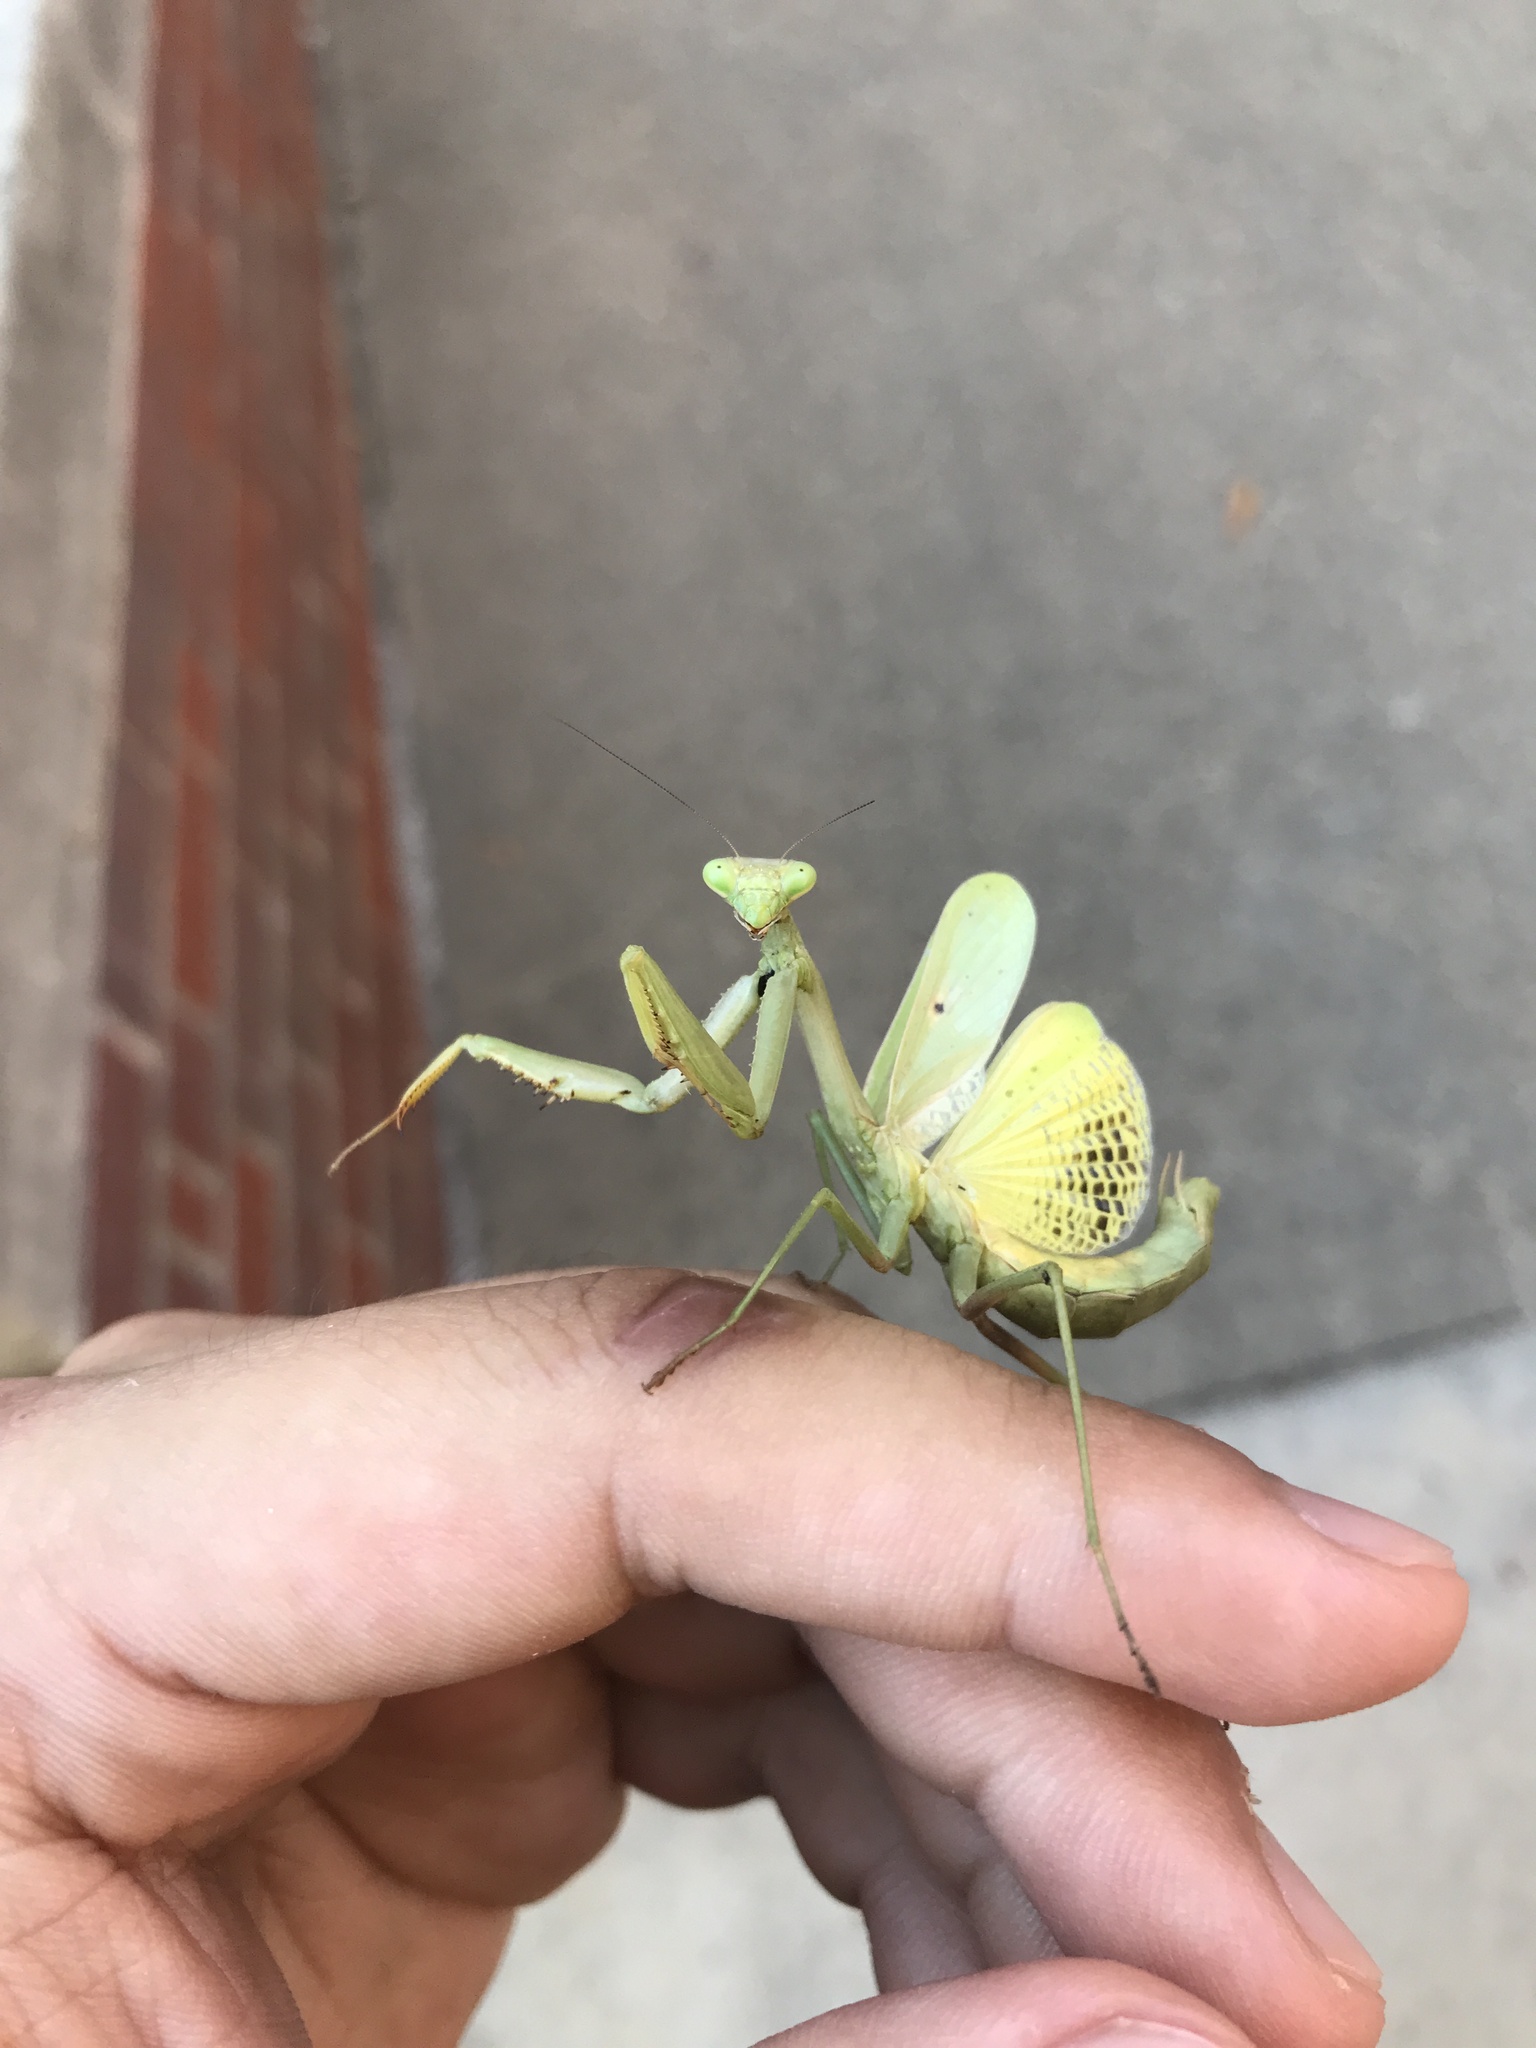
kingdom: Animalia
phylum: Arthropoda
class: Insecta
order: Mantodea
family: Mantidae
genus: Stagmomantis
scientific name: Stagmomantis carolina
